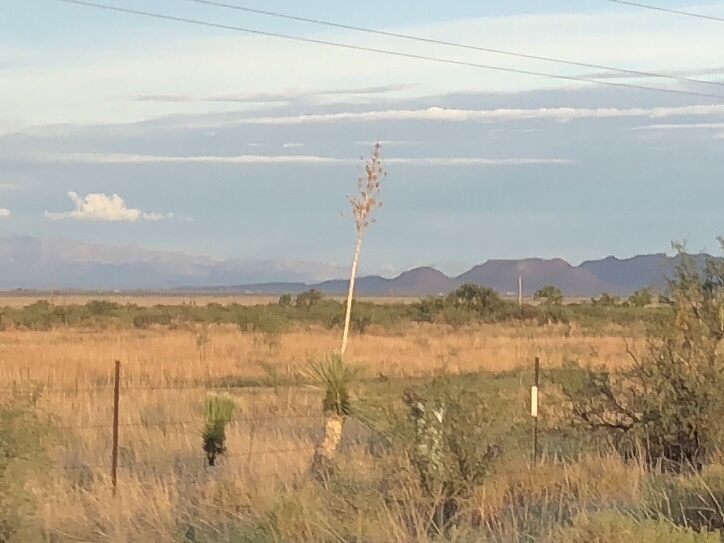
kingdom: Plantae
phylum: Tracheophyta
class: Liliopsida
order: Asparagales
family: Asparagaceae
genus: Yucca
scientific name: Yucca elata
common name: Palmella
